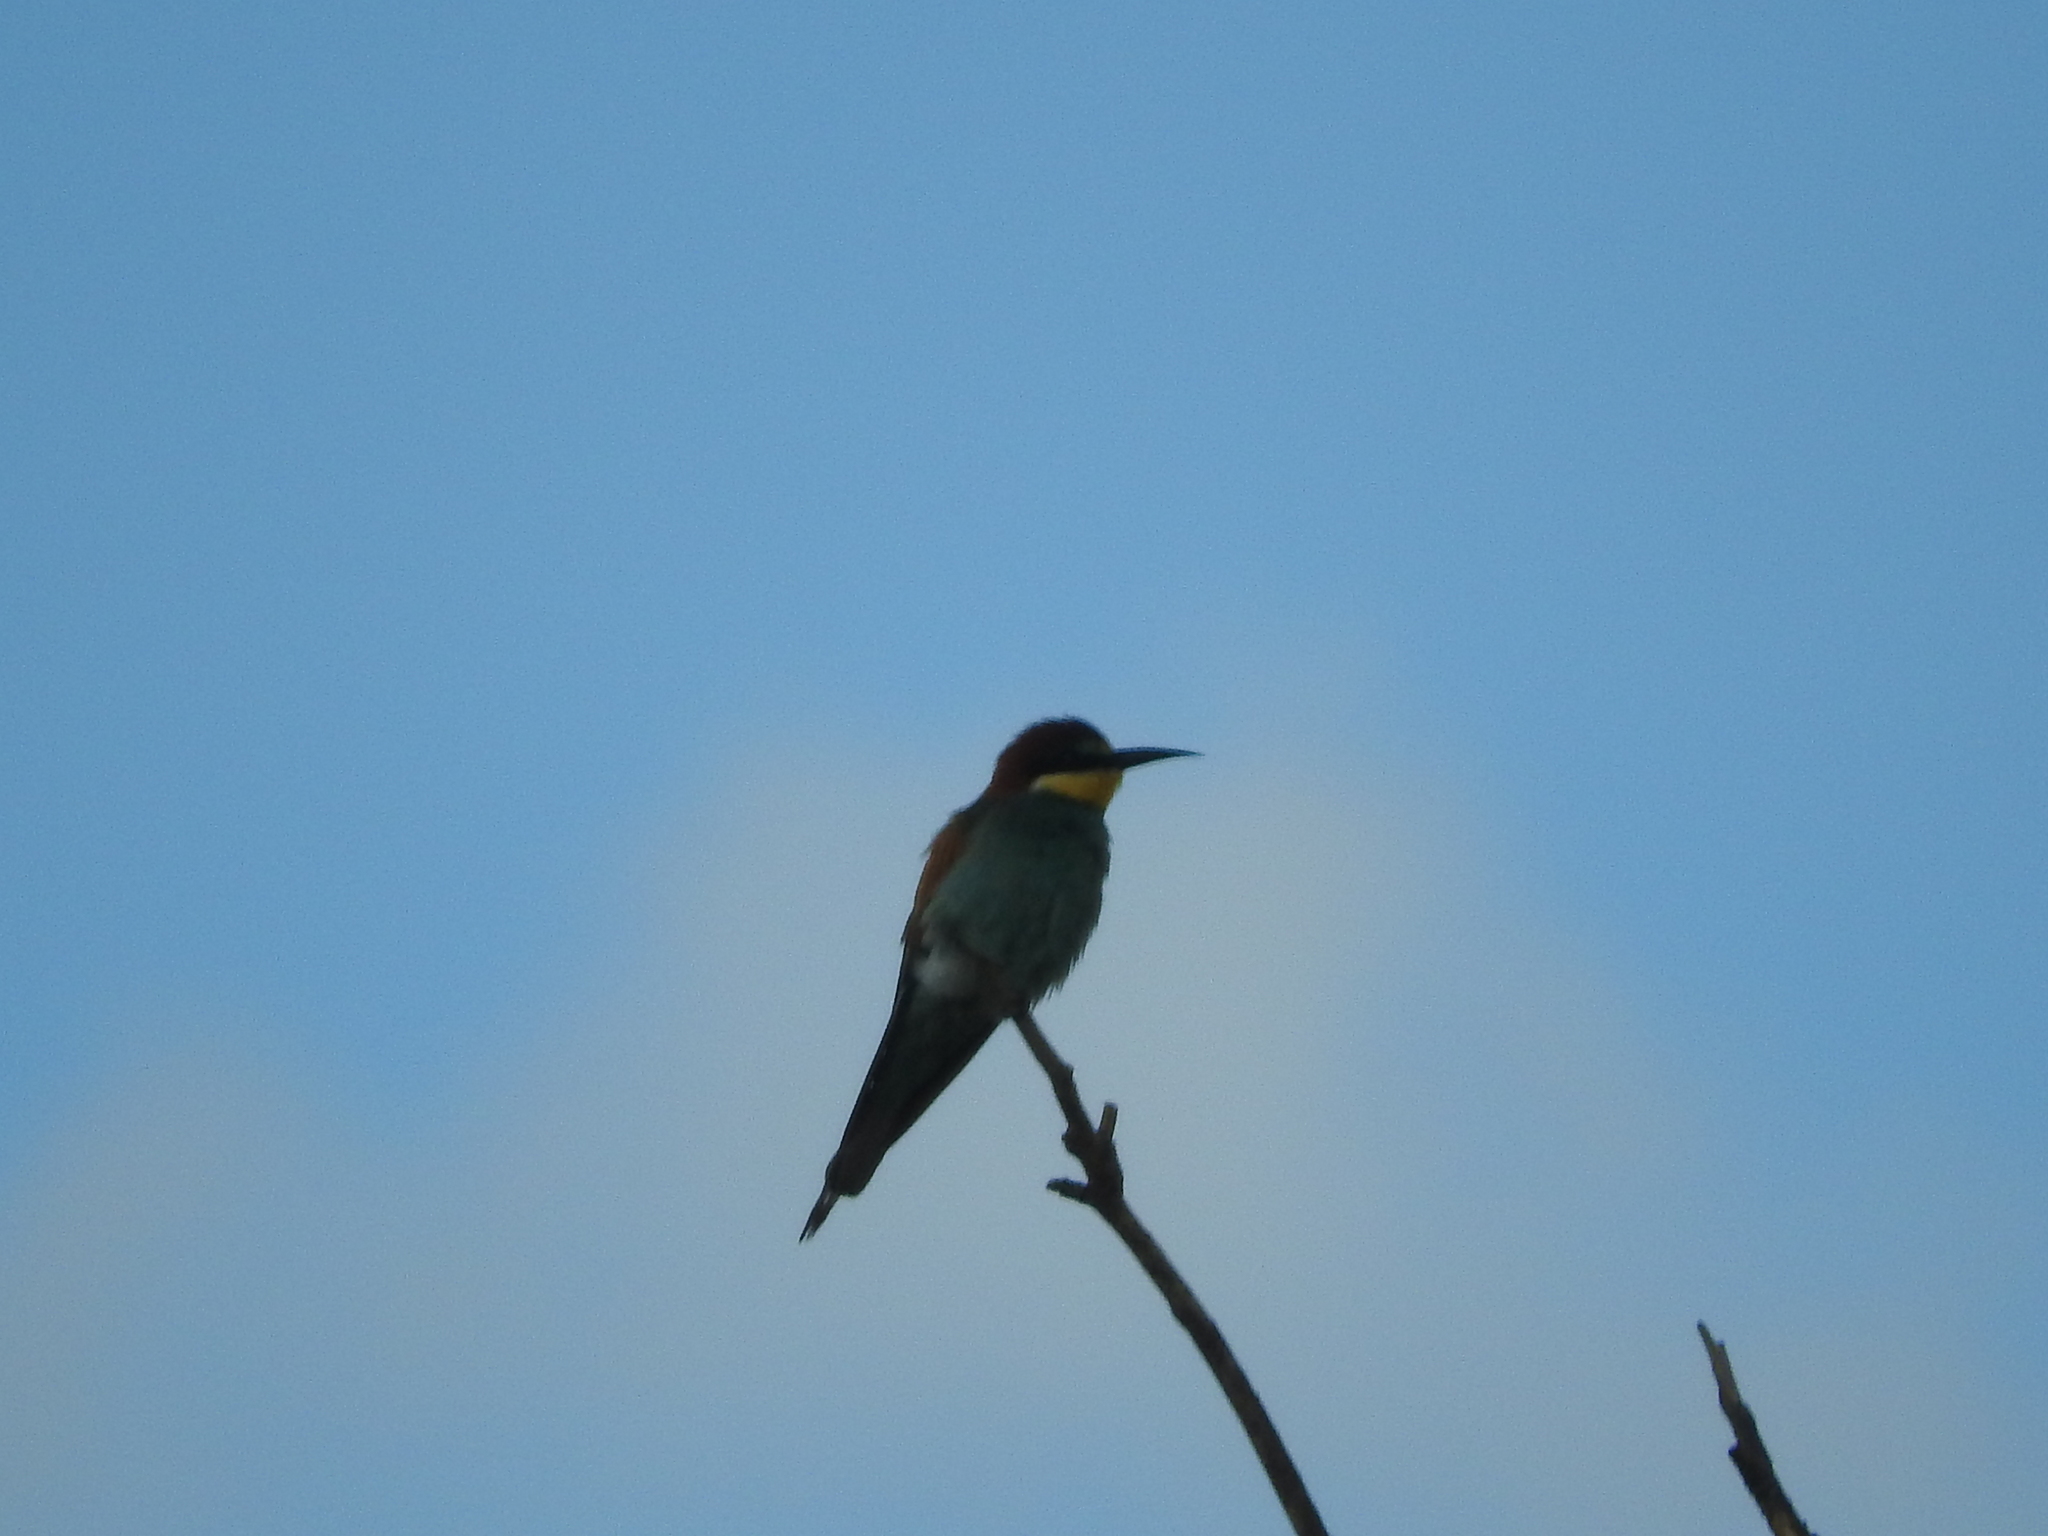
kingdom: Animalia
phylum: Chordata
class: Aves
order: Coraciiformes
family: Meropidae
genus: Merops
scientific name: Merops apiaster
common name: European bee-eater
